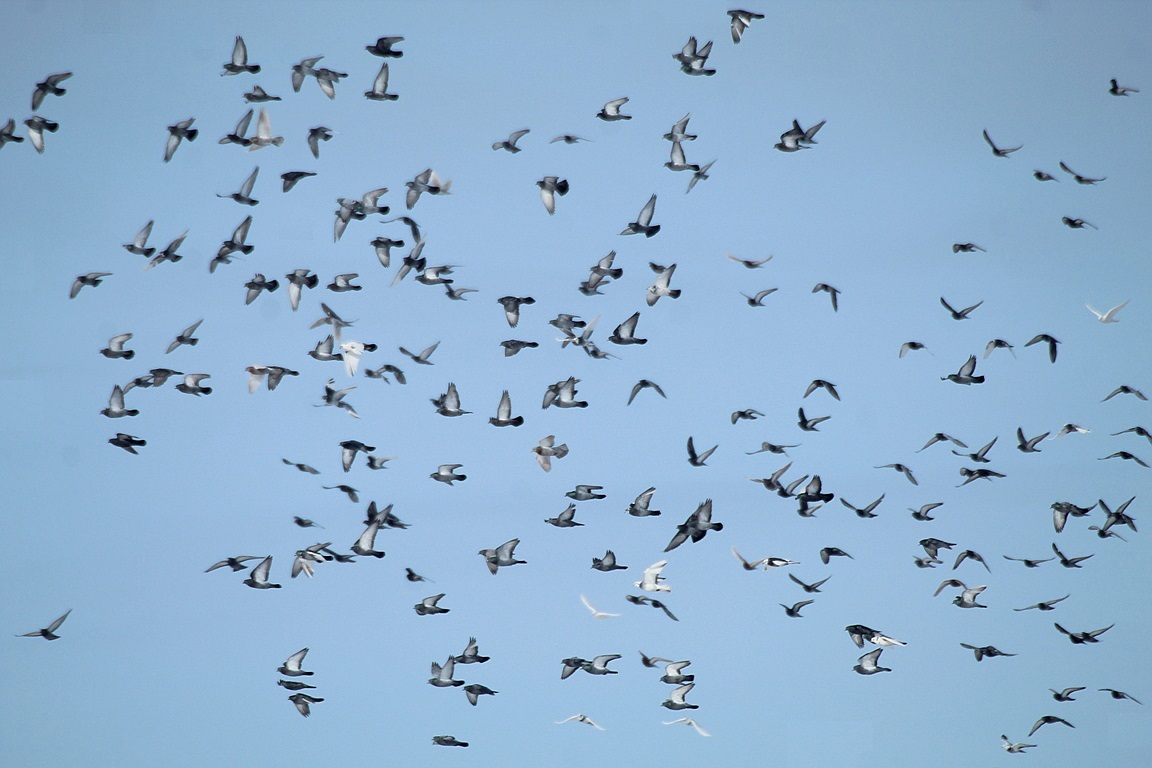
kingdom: Animalia
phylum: Chordata
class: Aves
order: Columbiformes
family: Columbidae
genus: Columba
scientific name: Columba livia
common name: Rock pigeon
